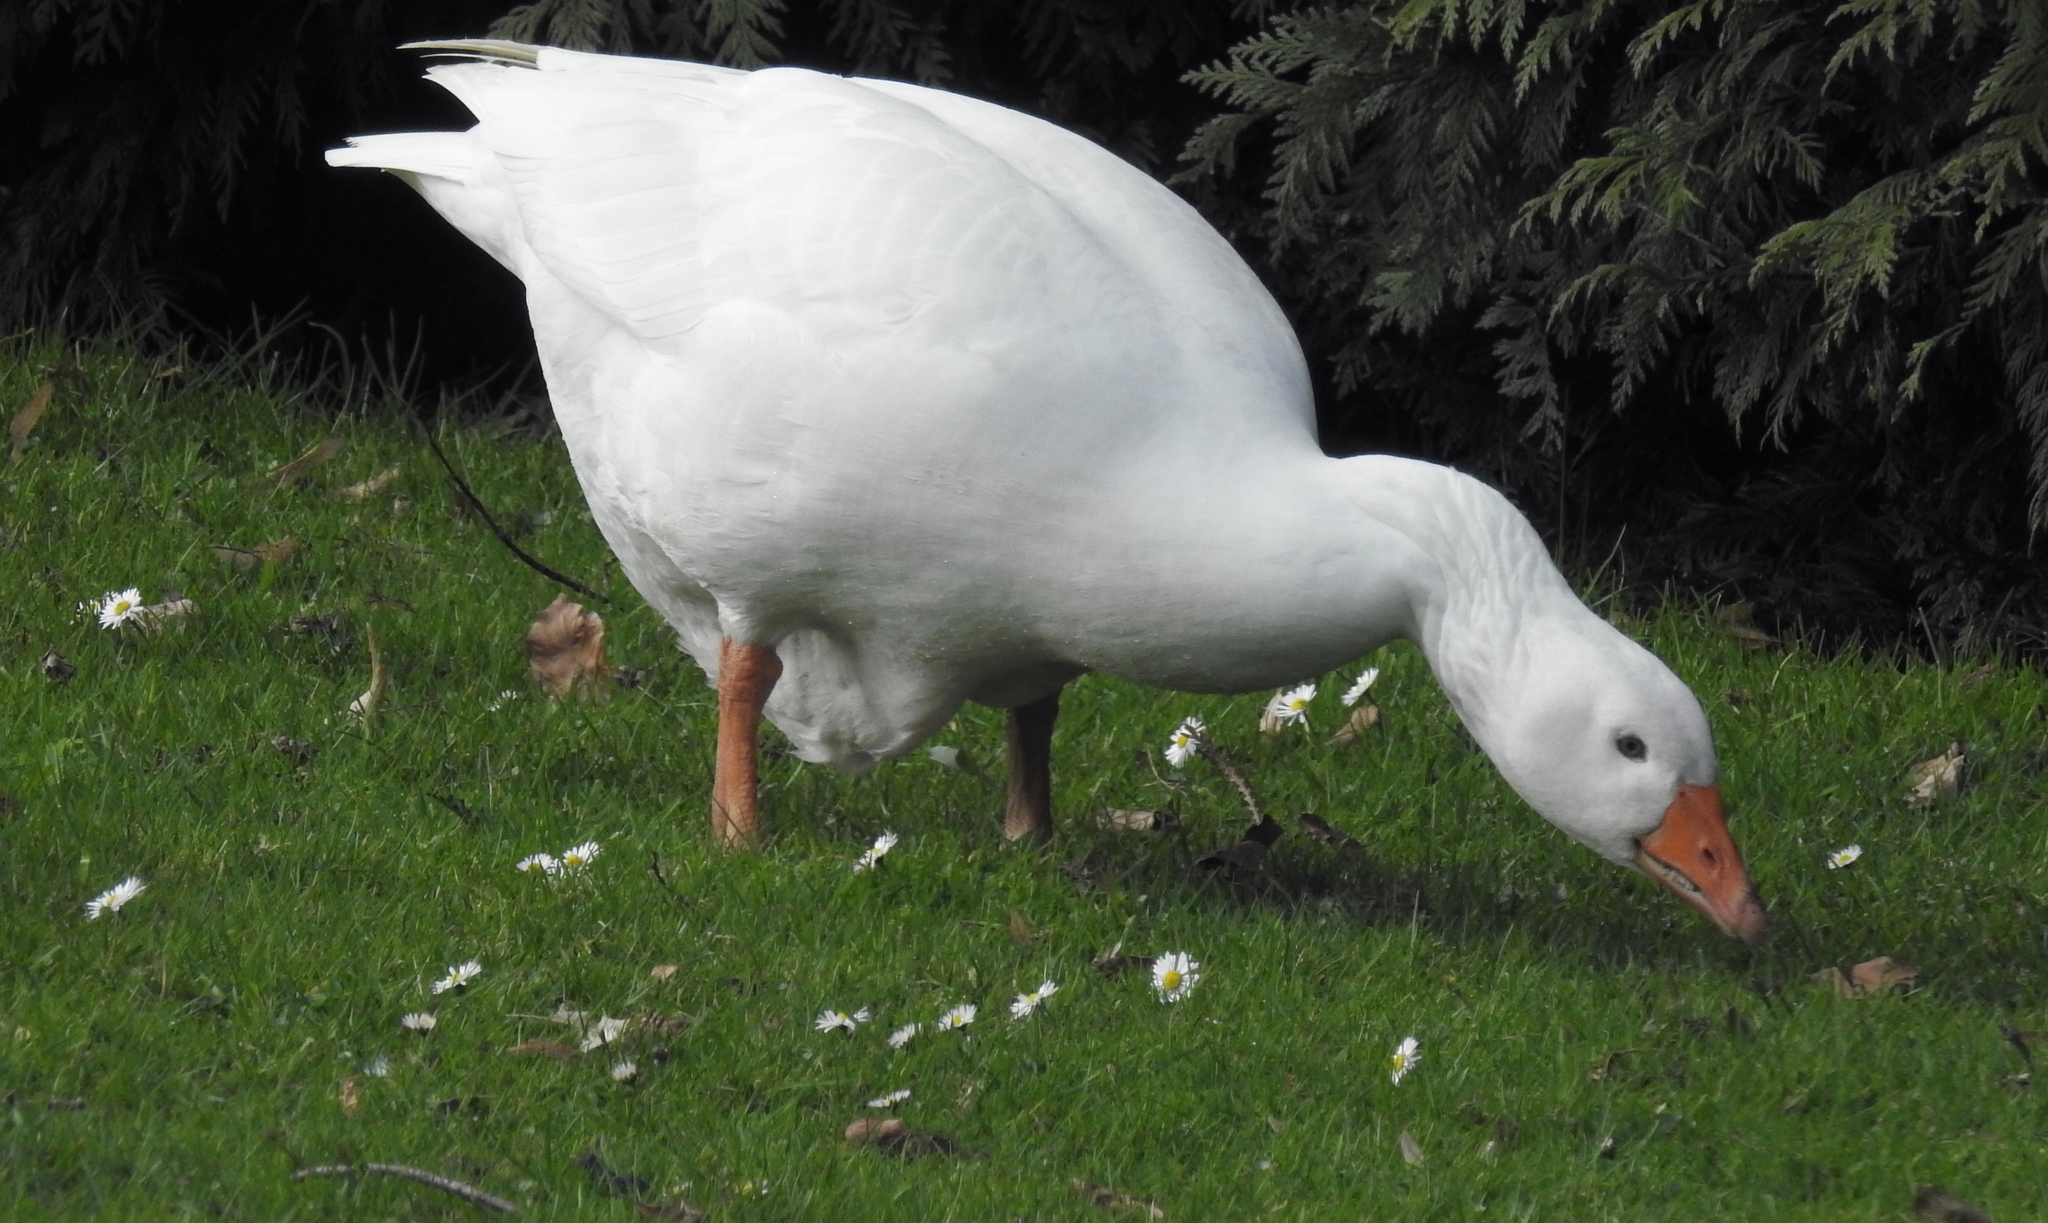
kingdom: Animalia
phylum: Chordata
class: Aves
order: Anseriformes
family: Anatidae
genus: Anser
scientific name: Anser anser
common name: Greylag goose
